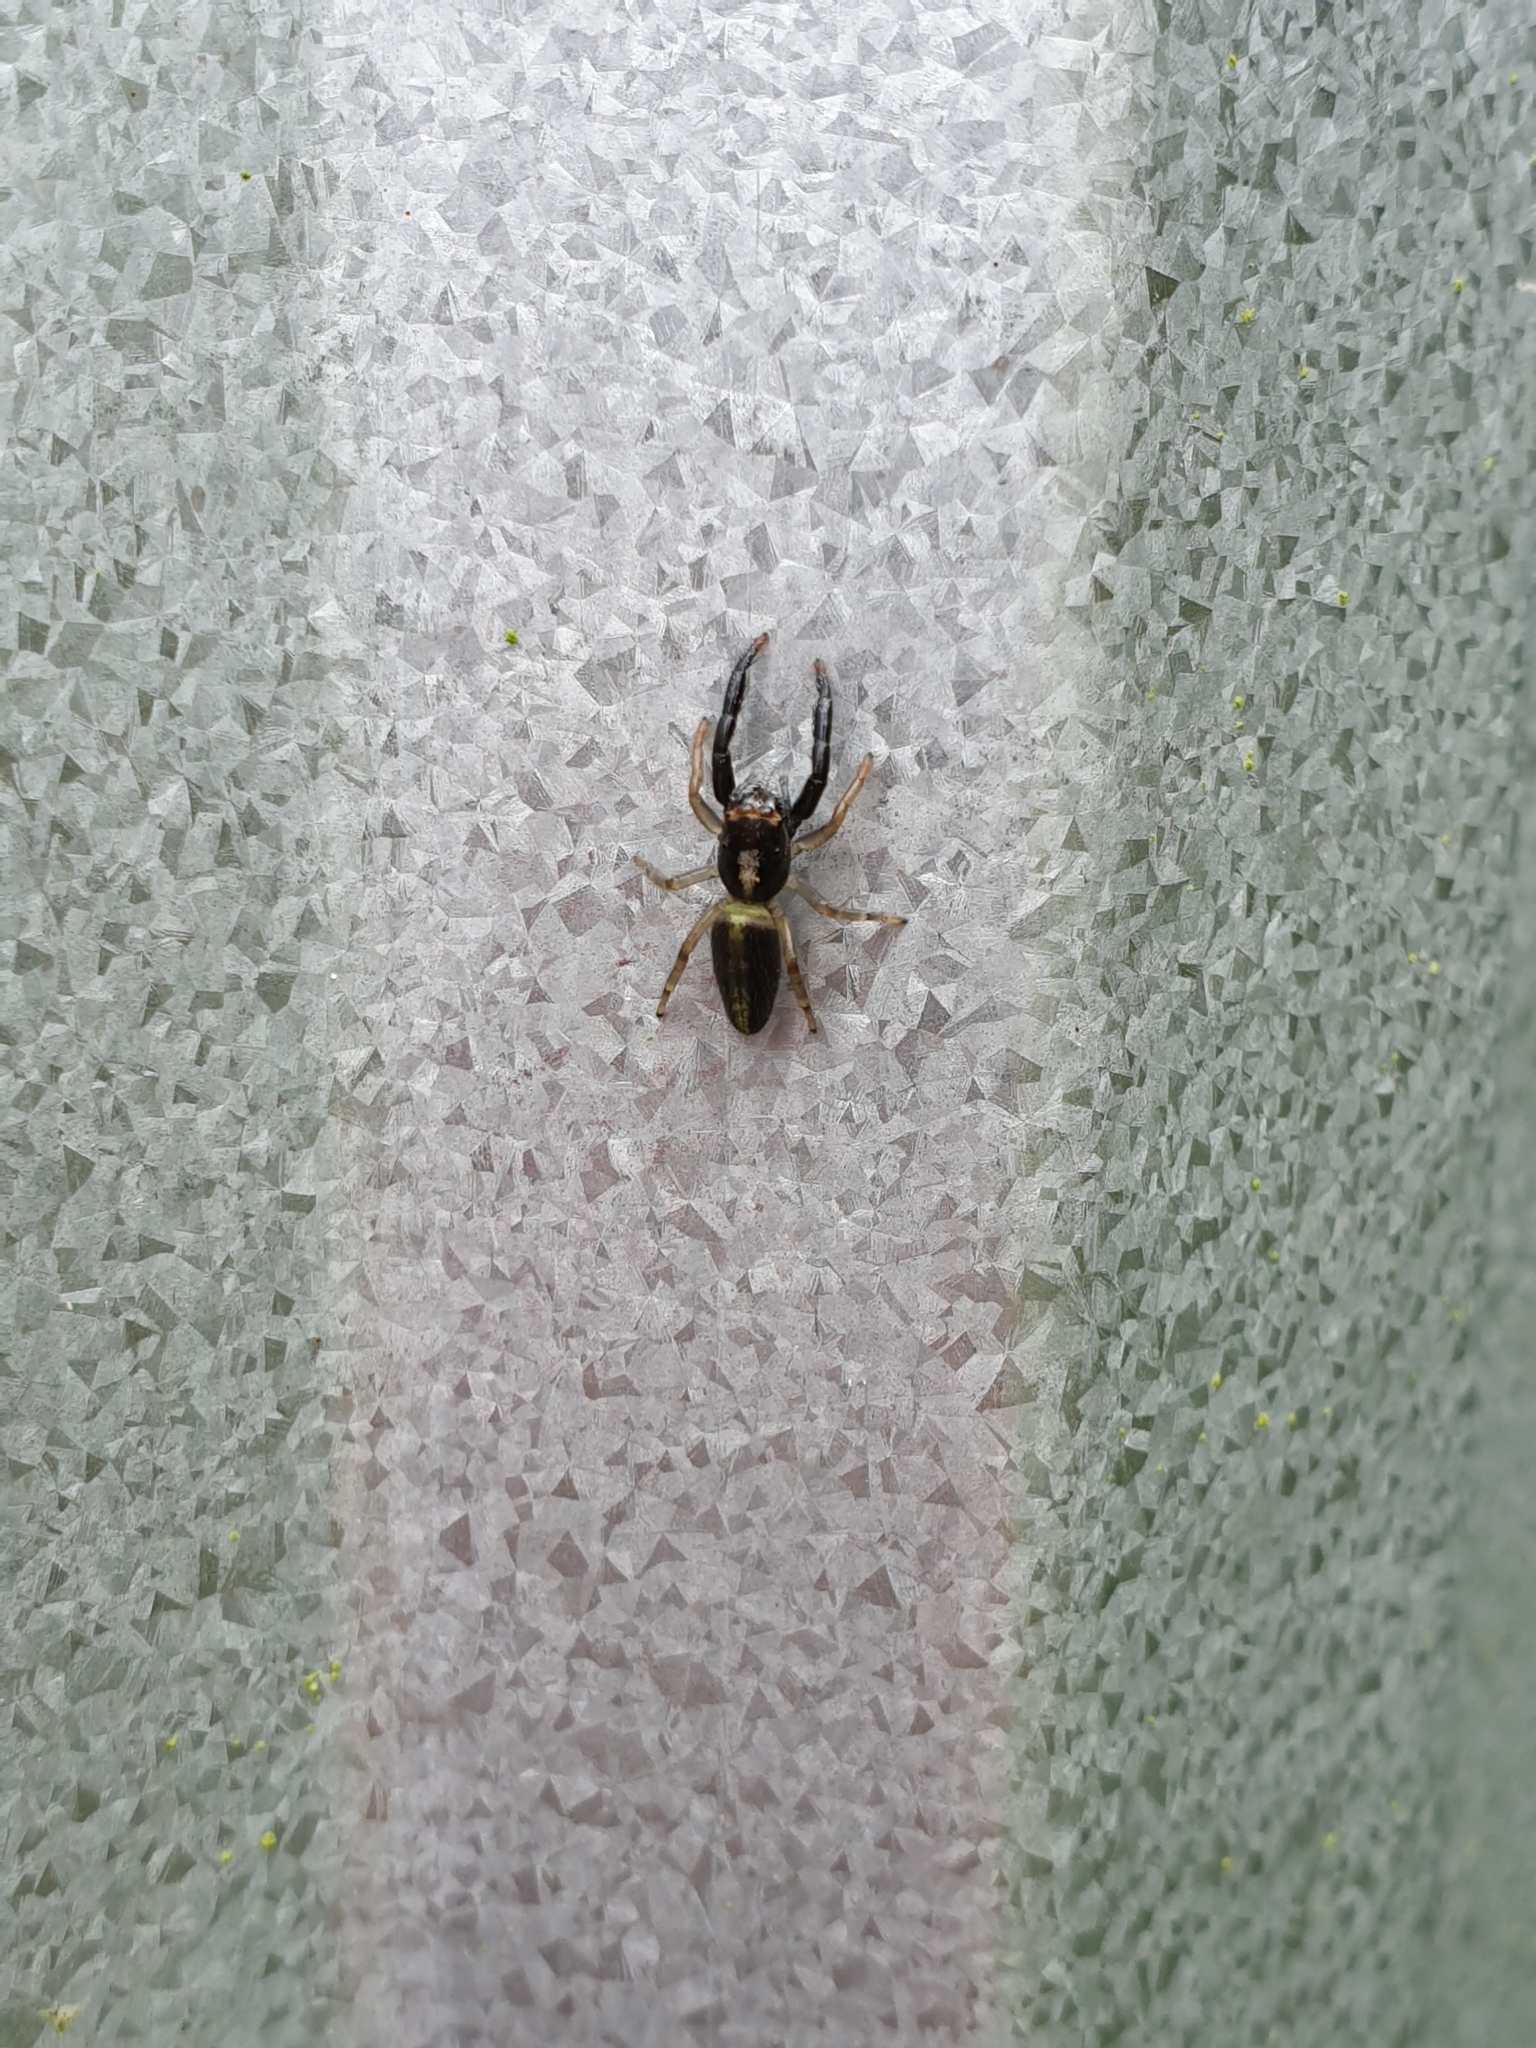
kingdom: Animalia
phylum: Arthropoda
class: Arachnida
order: Araneae
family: Salticidae
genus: Trite
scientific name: Trite planiceps
